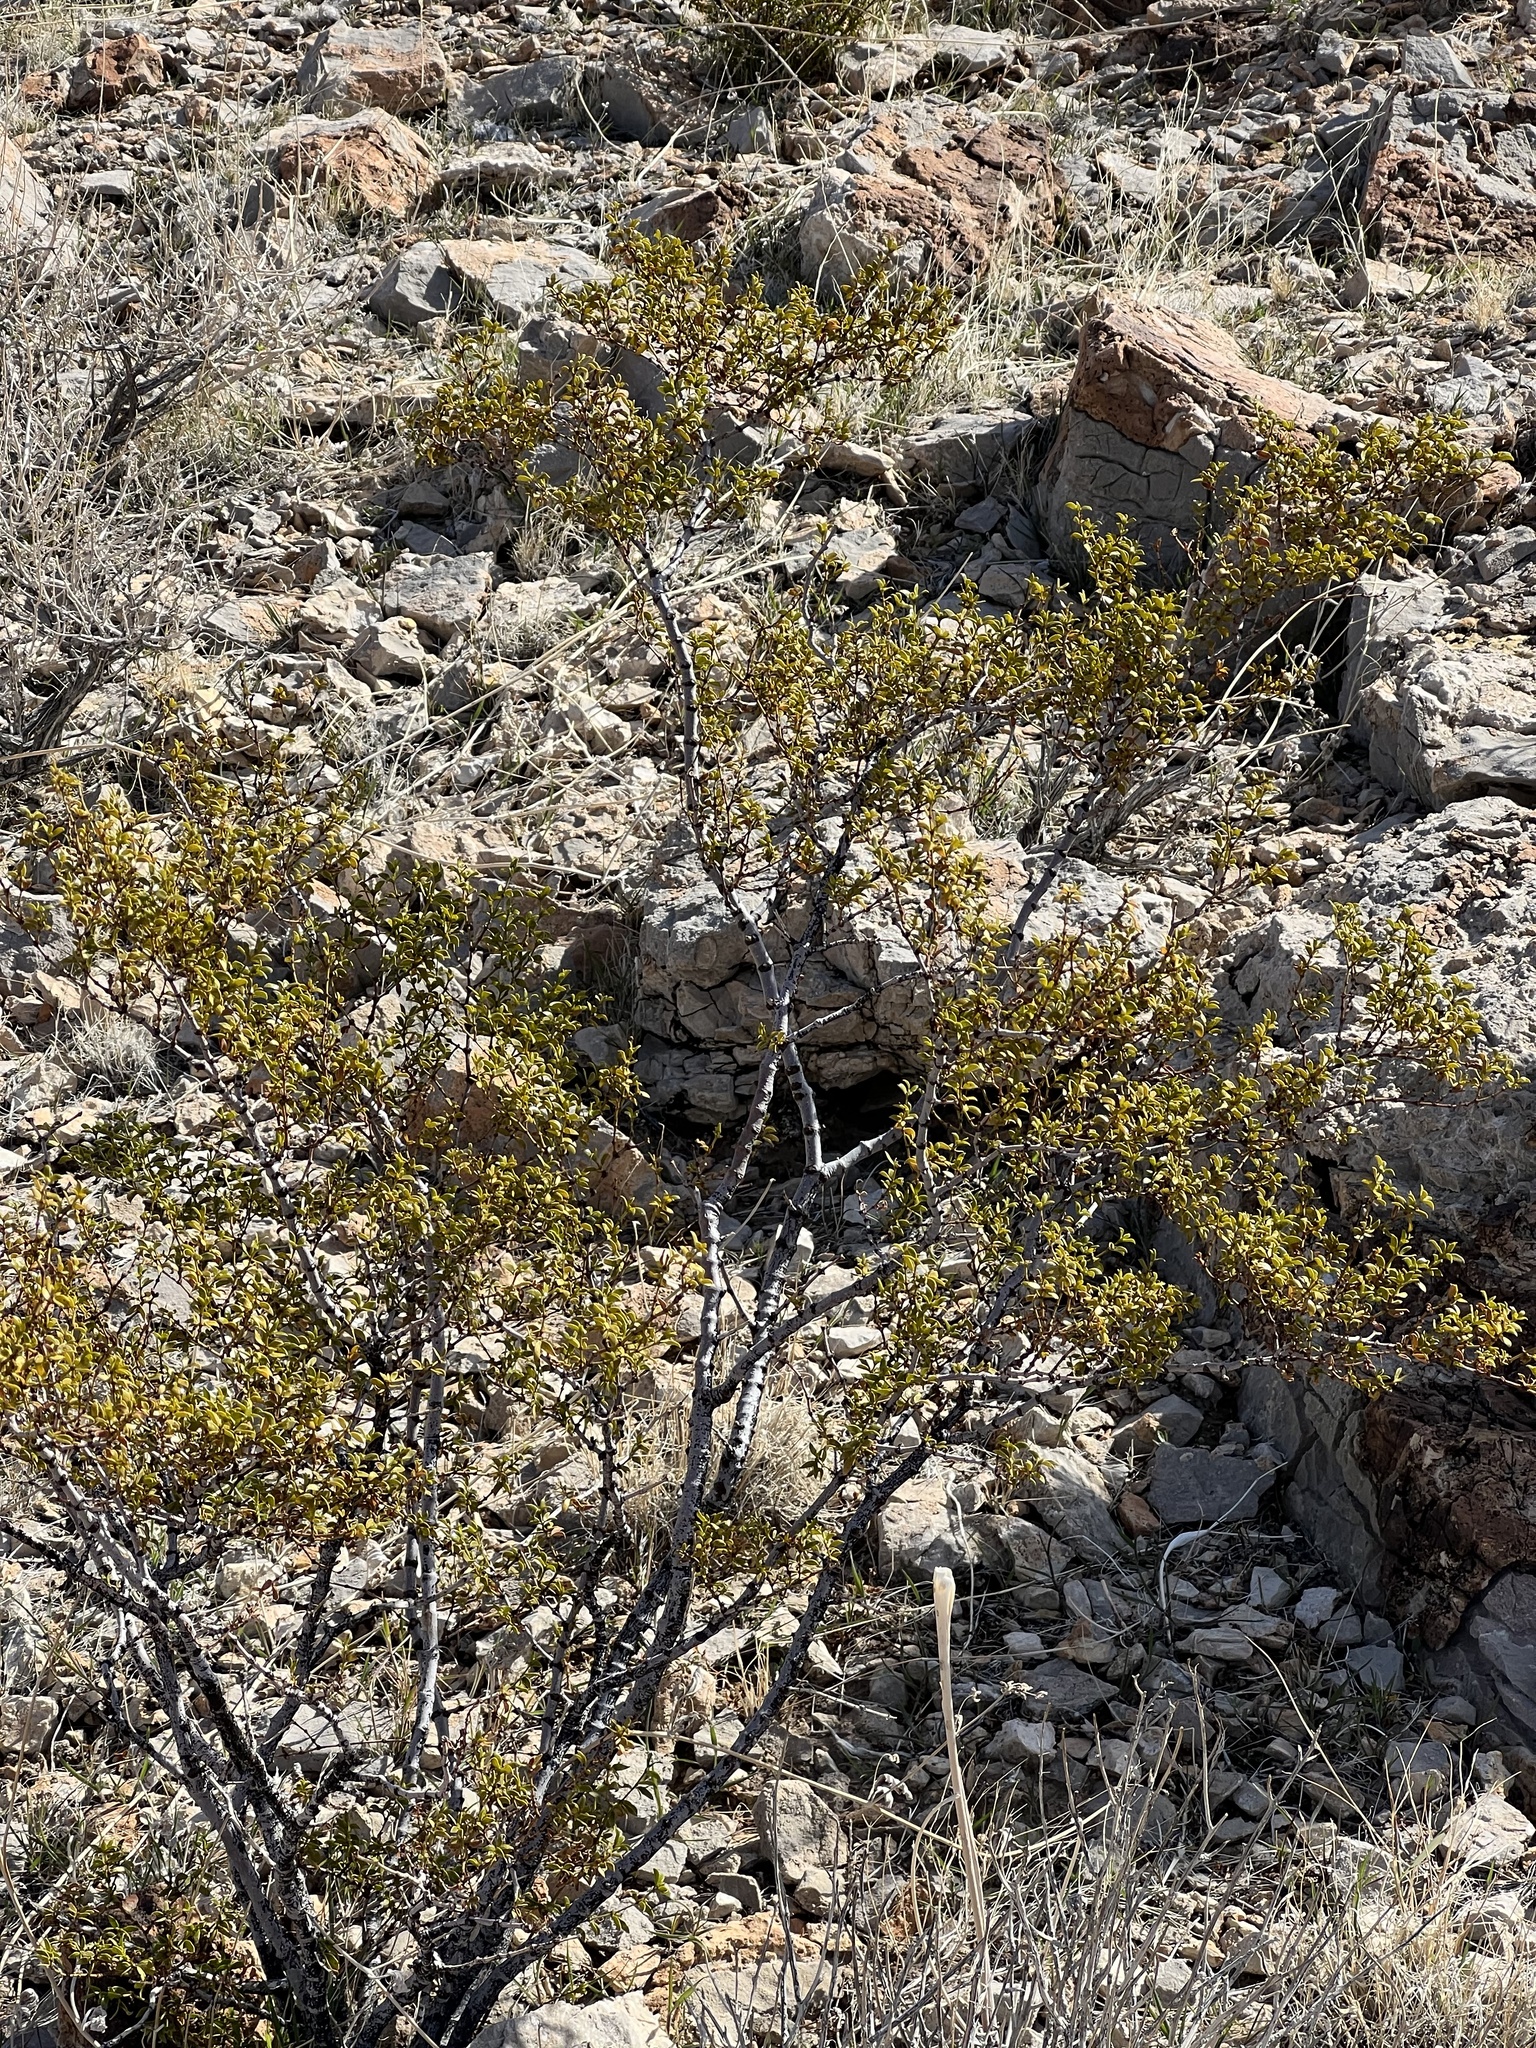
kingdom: Plantae
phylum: Tracheophyta
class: Magnoliopsida
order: Zygophyllales
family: Zygophyllaceae
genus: Larrea
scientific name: Larrea tridentata
